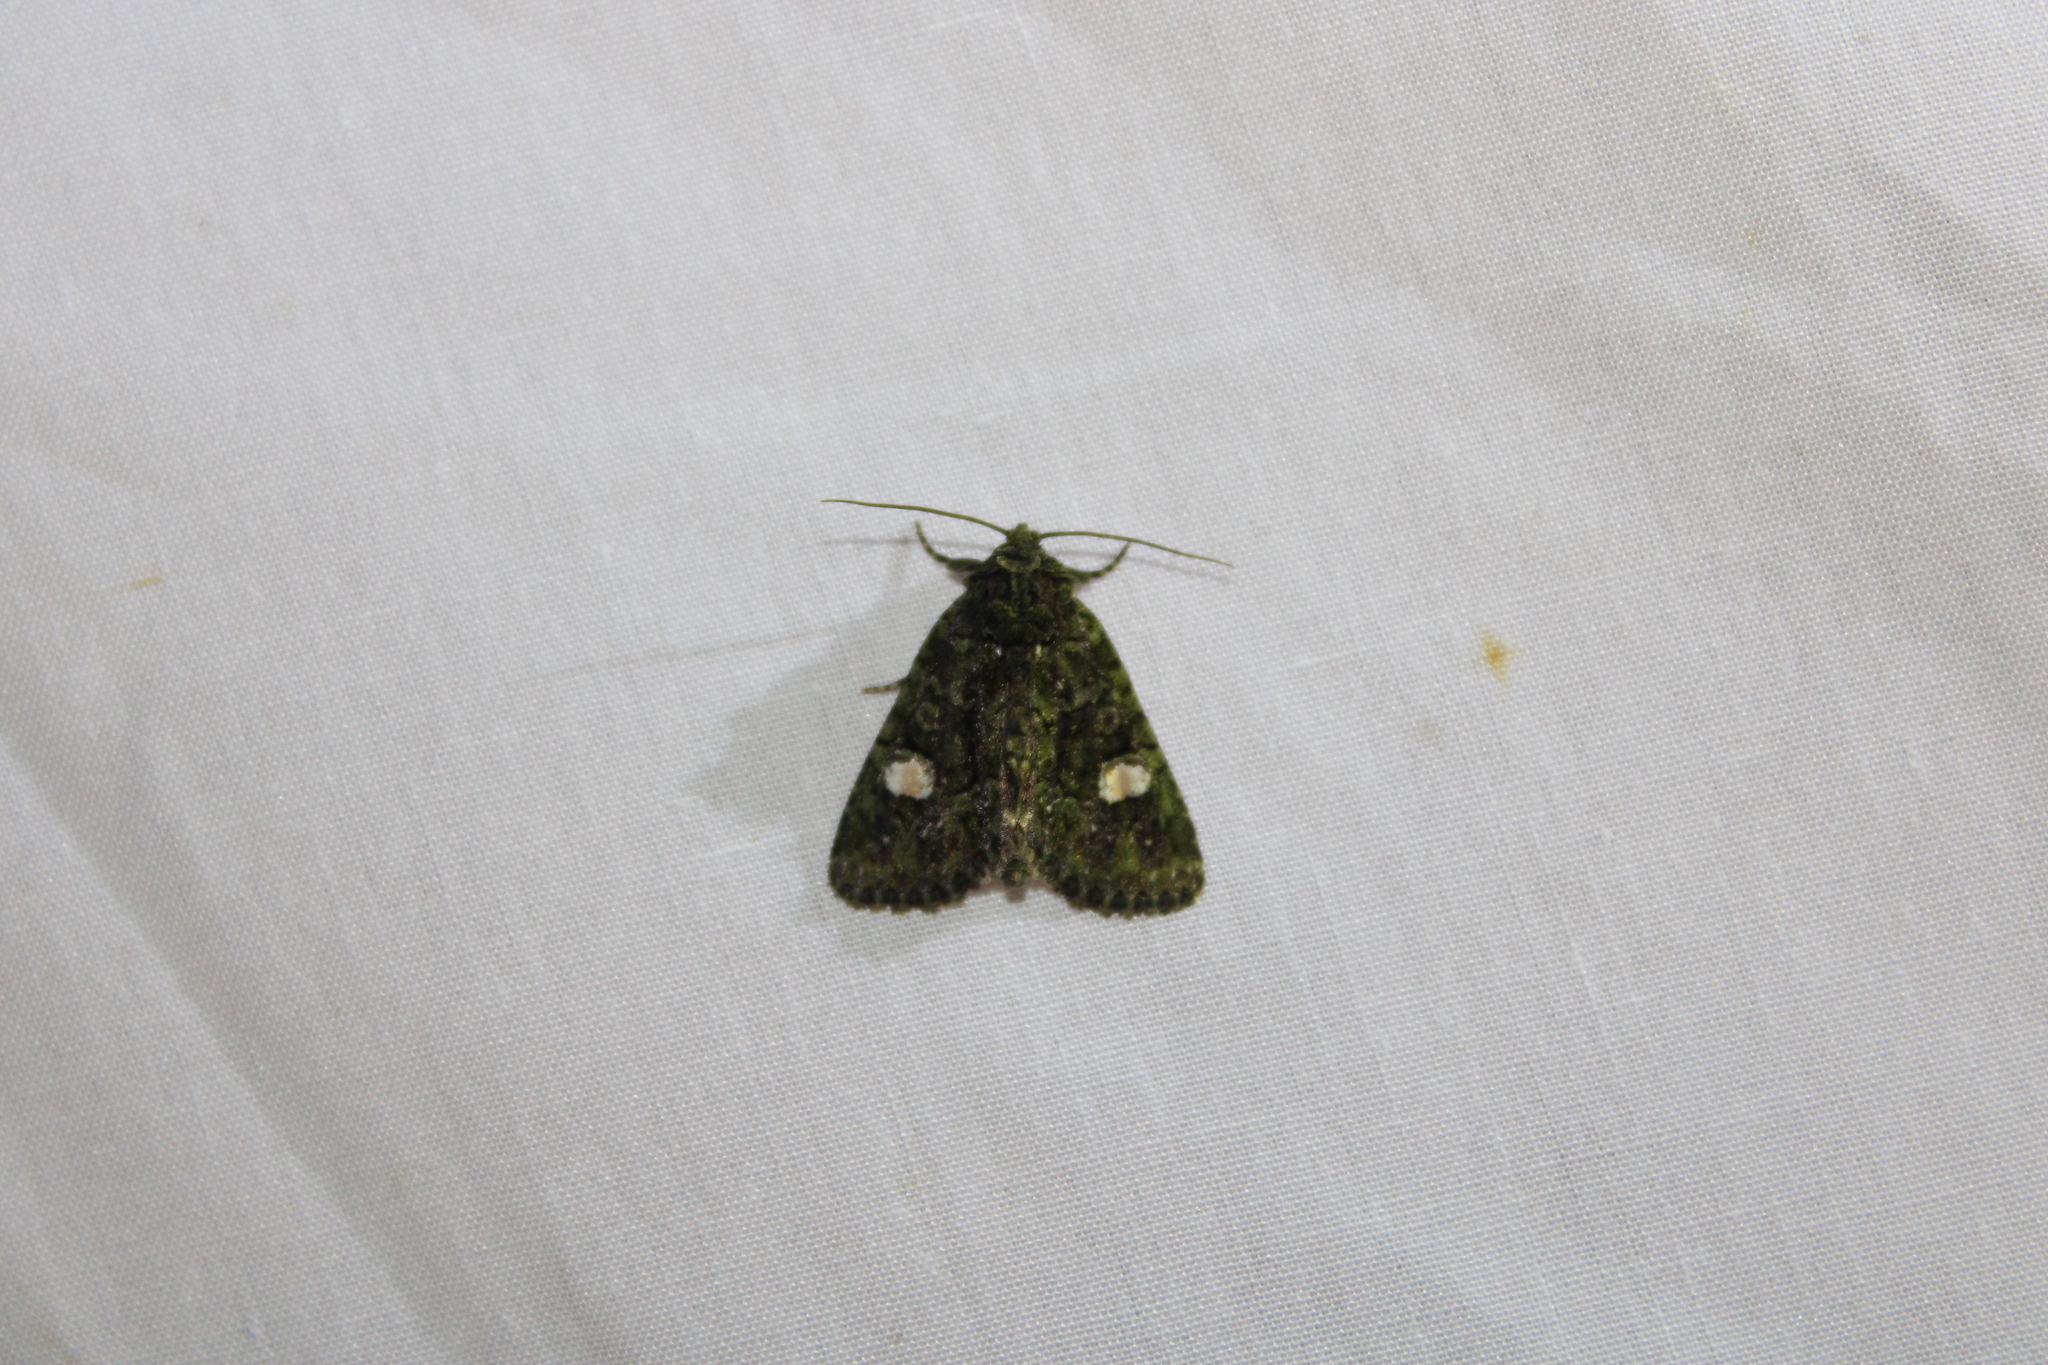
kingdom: Animalia
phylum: Arthropoda
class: Insecta
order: Lepidoptera
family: Noctuidae
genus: Phosphila
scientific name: Phosphila miselioides
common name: Spotted phosphila moth
